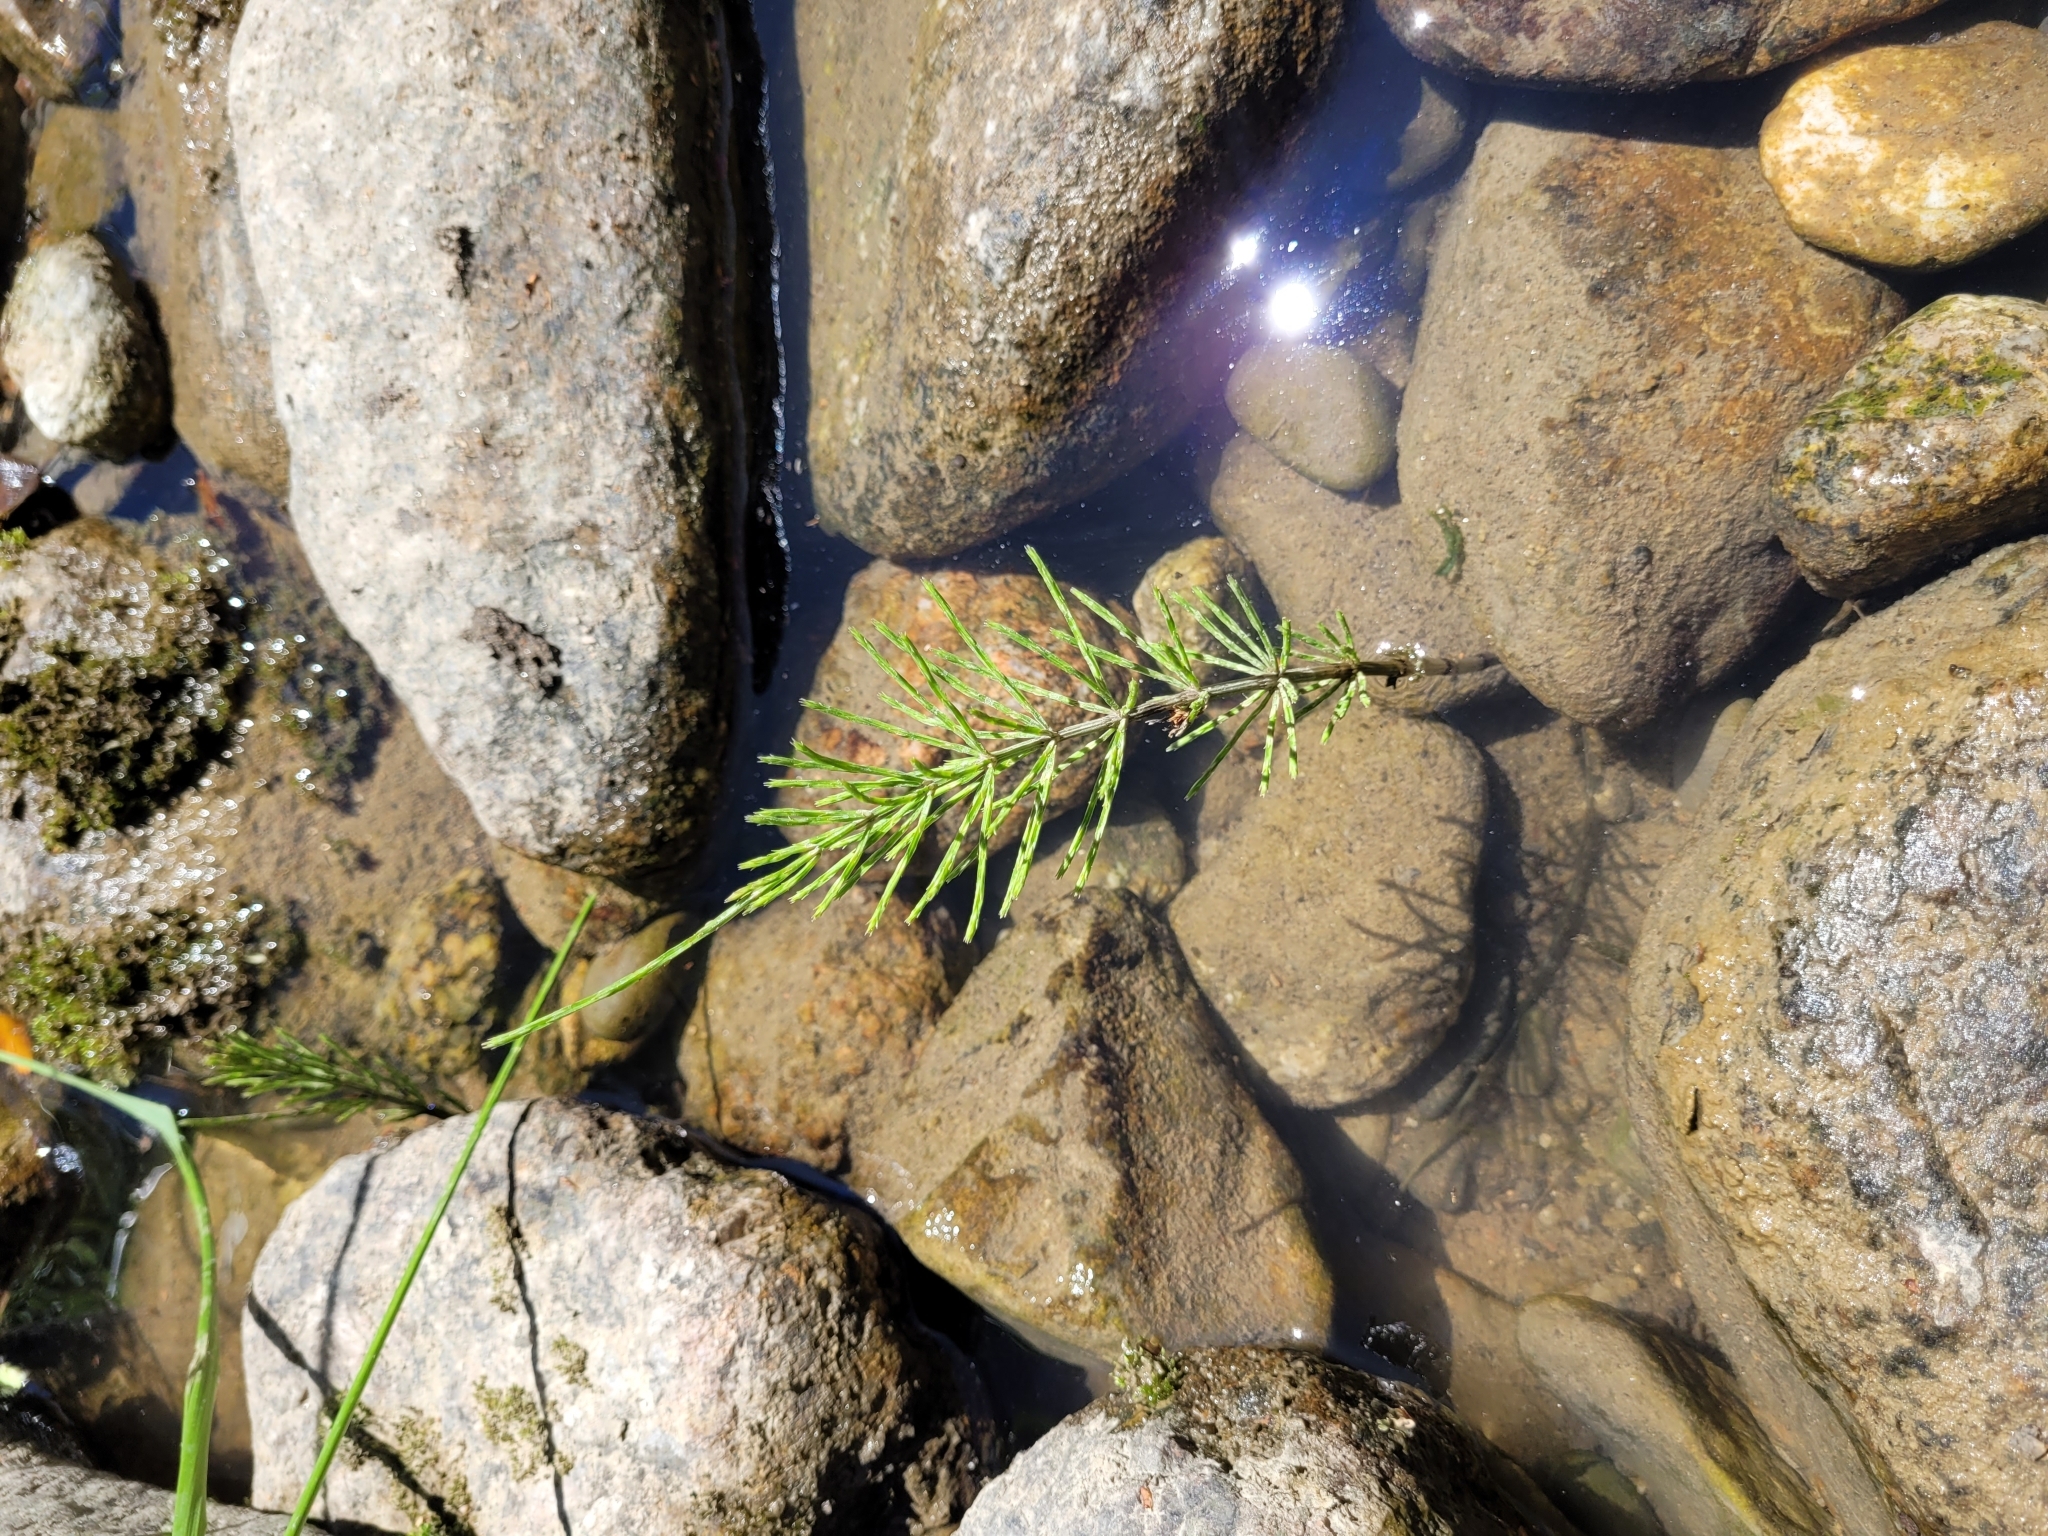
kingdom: Plantae
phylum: Tracheophyta
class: Polypodiopsida
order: Equisetales
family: Equisetaceae
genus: Equisetum
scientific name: Equisetum arvense
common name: Field horsetail
